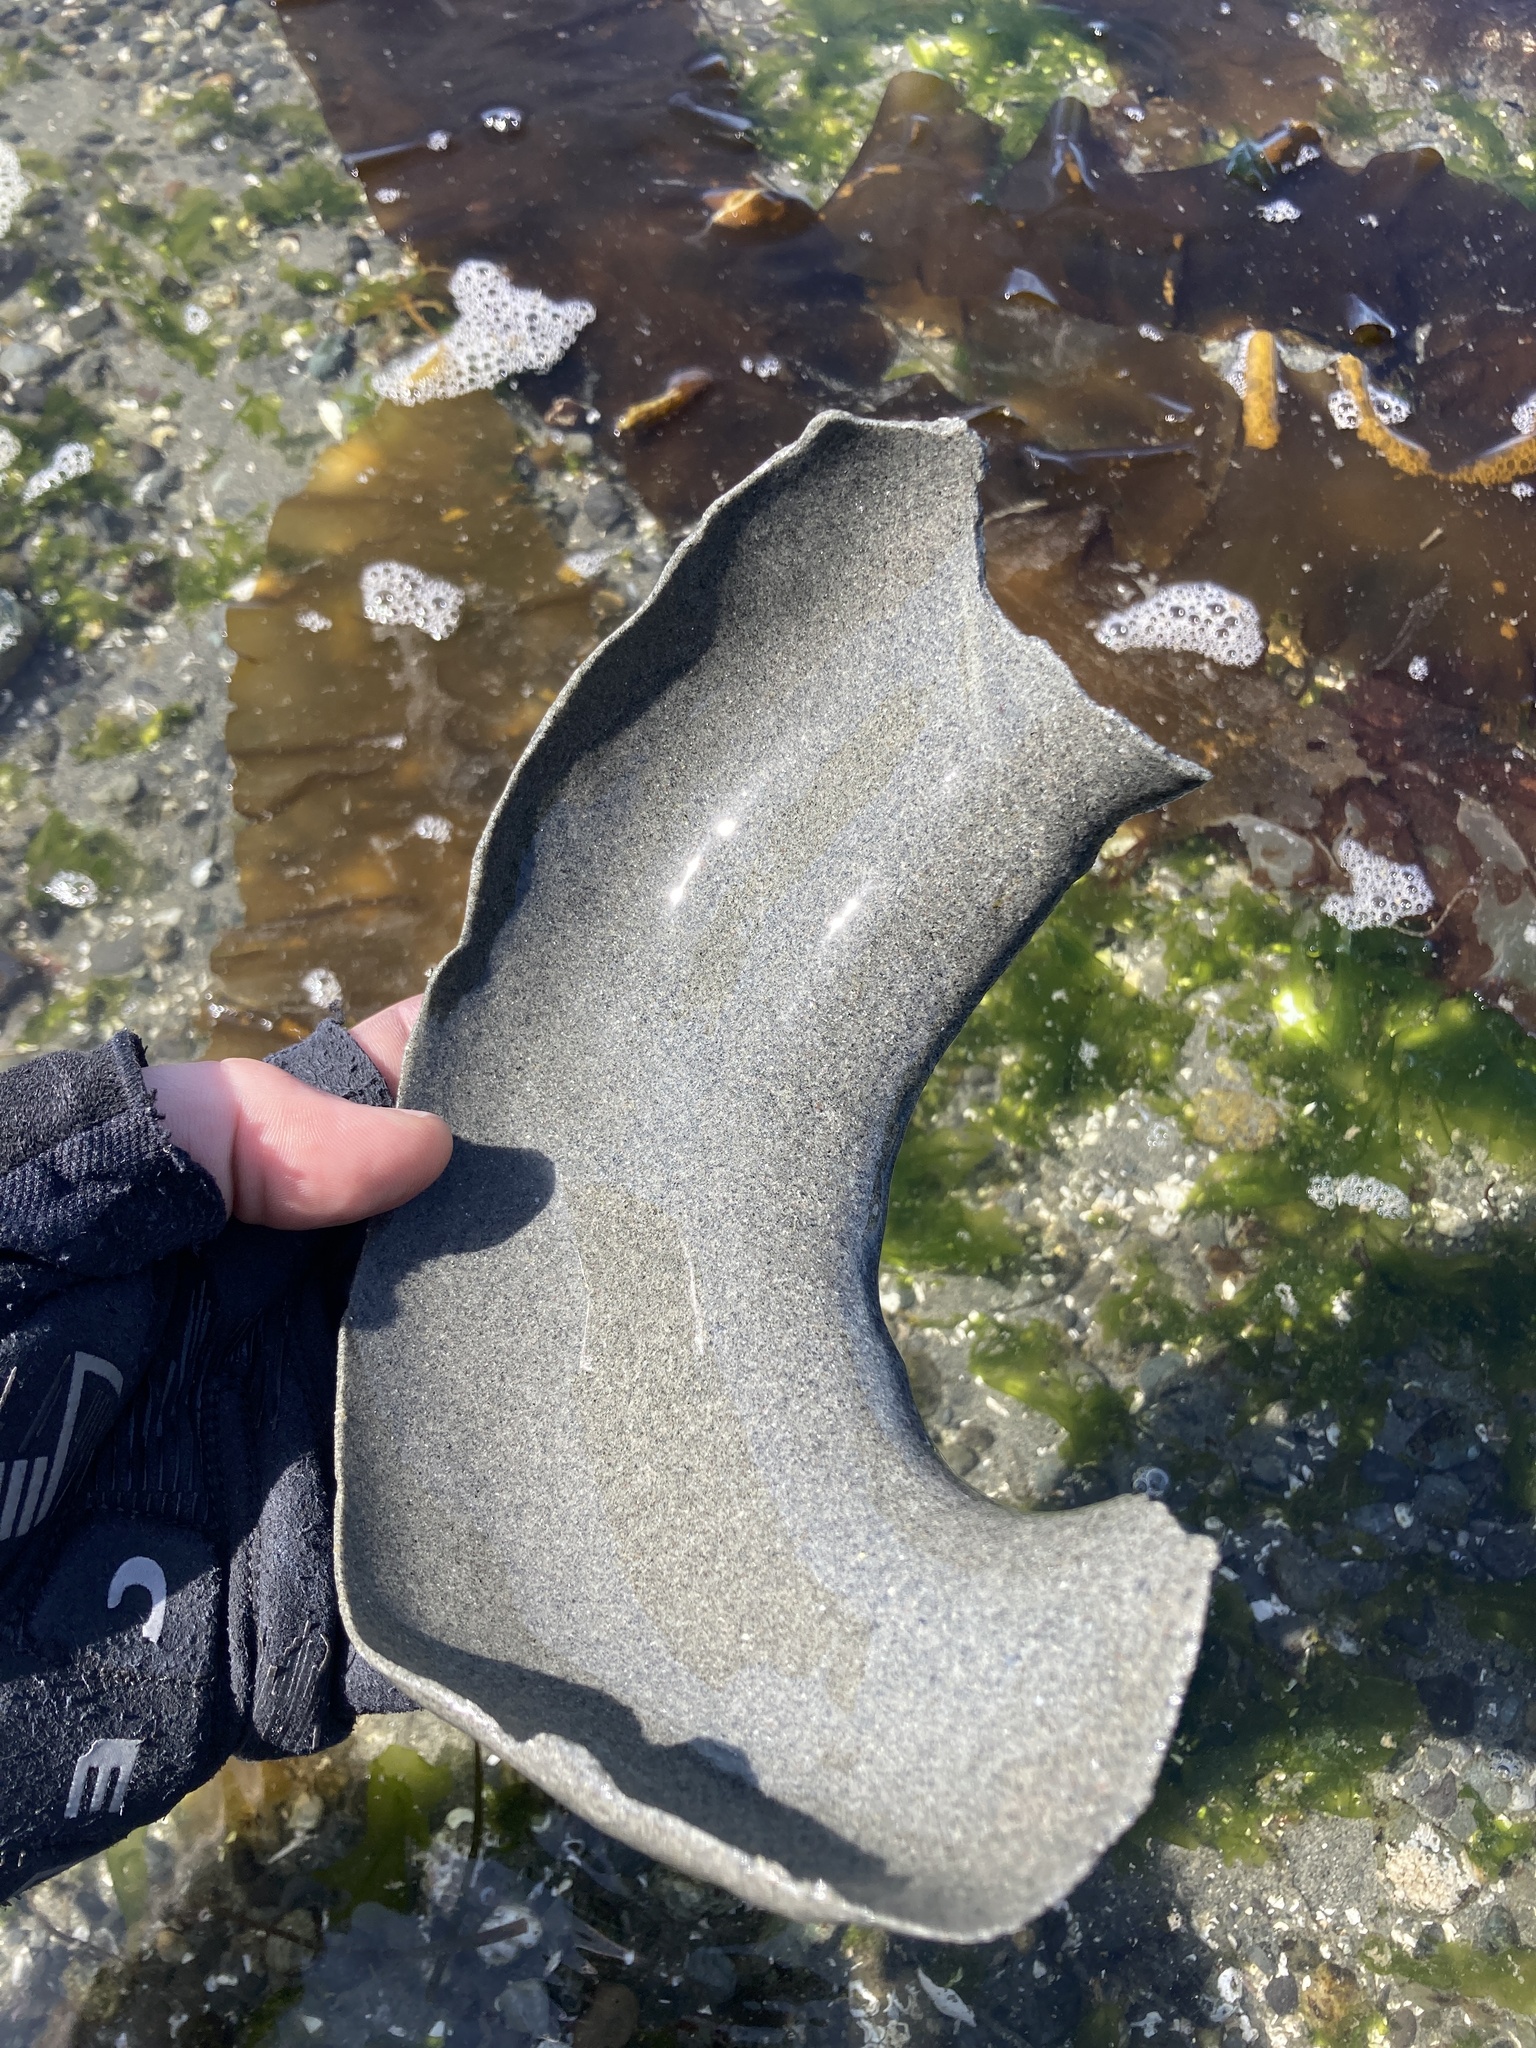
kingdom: Animalia
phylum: Mollusca
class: Gastropoda
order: Littorinimorpha
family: Naticidae
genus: Neverita
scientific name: Neverita lewisii
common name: Lewis' moonsnail
